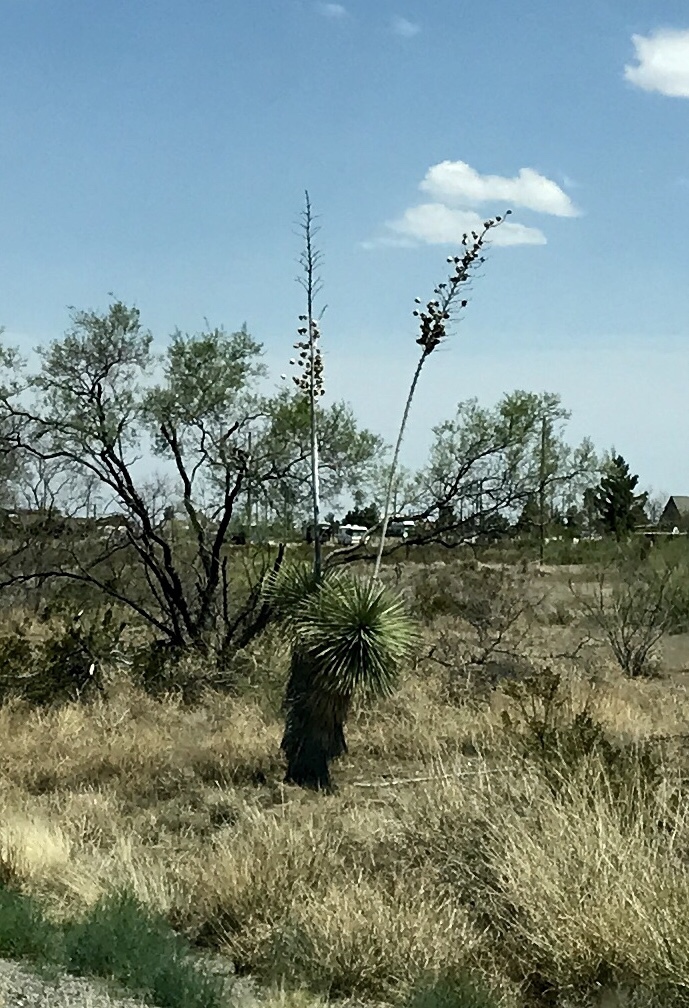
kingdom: Plantae
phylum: Tracheophyta
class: Liliopsida
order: Asparagales
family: Asparagaceae
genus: Yucca
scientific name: Yucca elata
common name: Palmella
